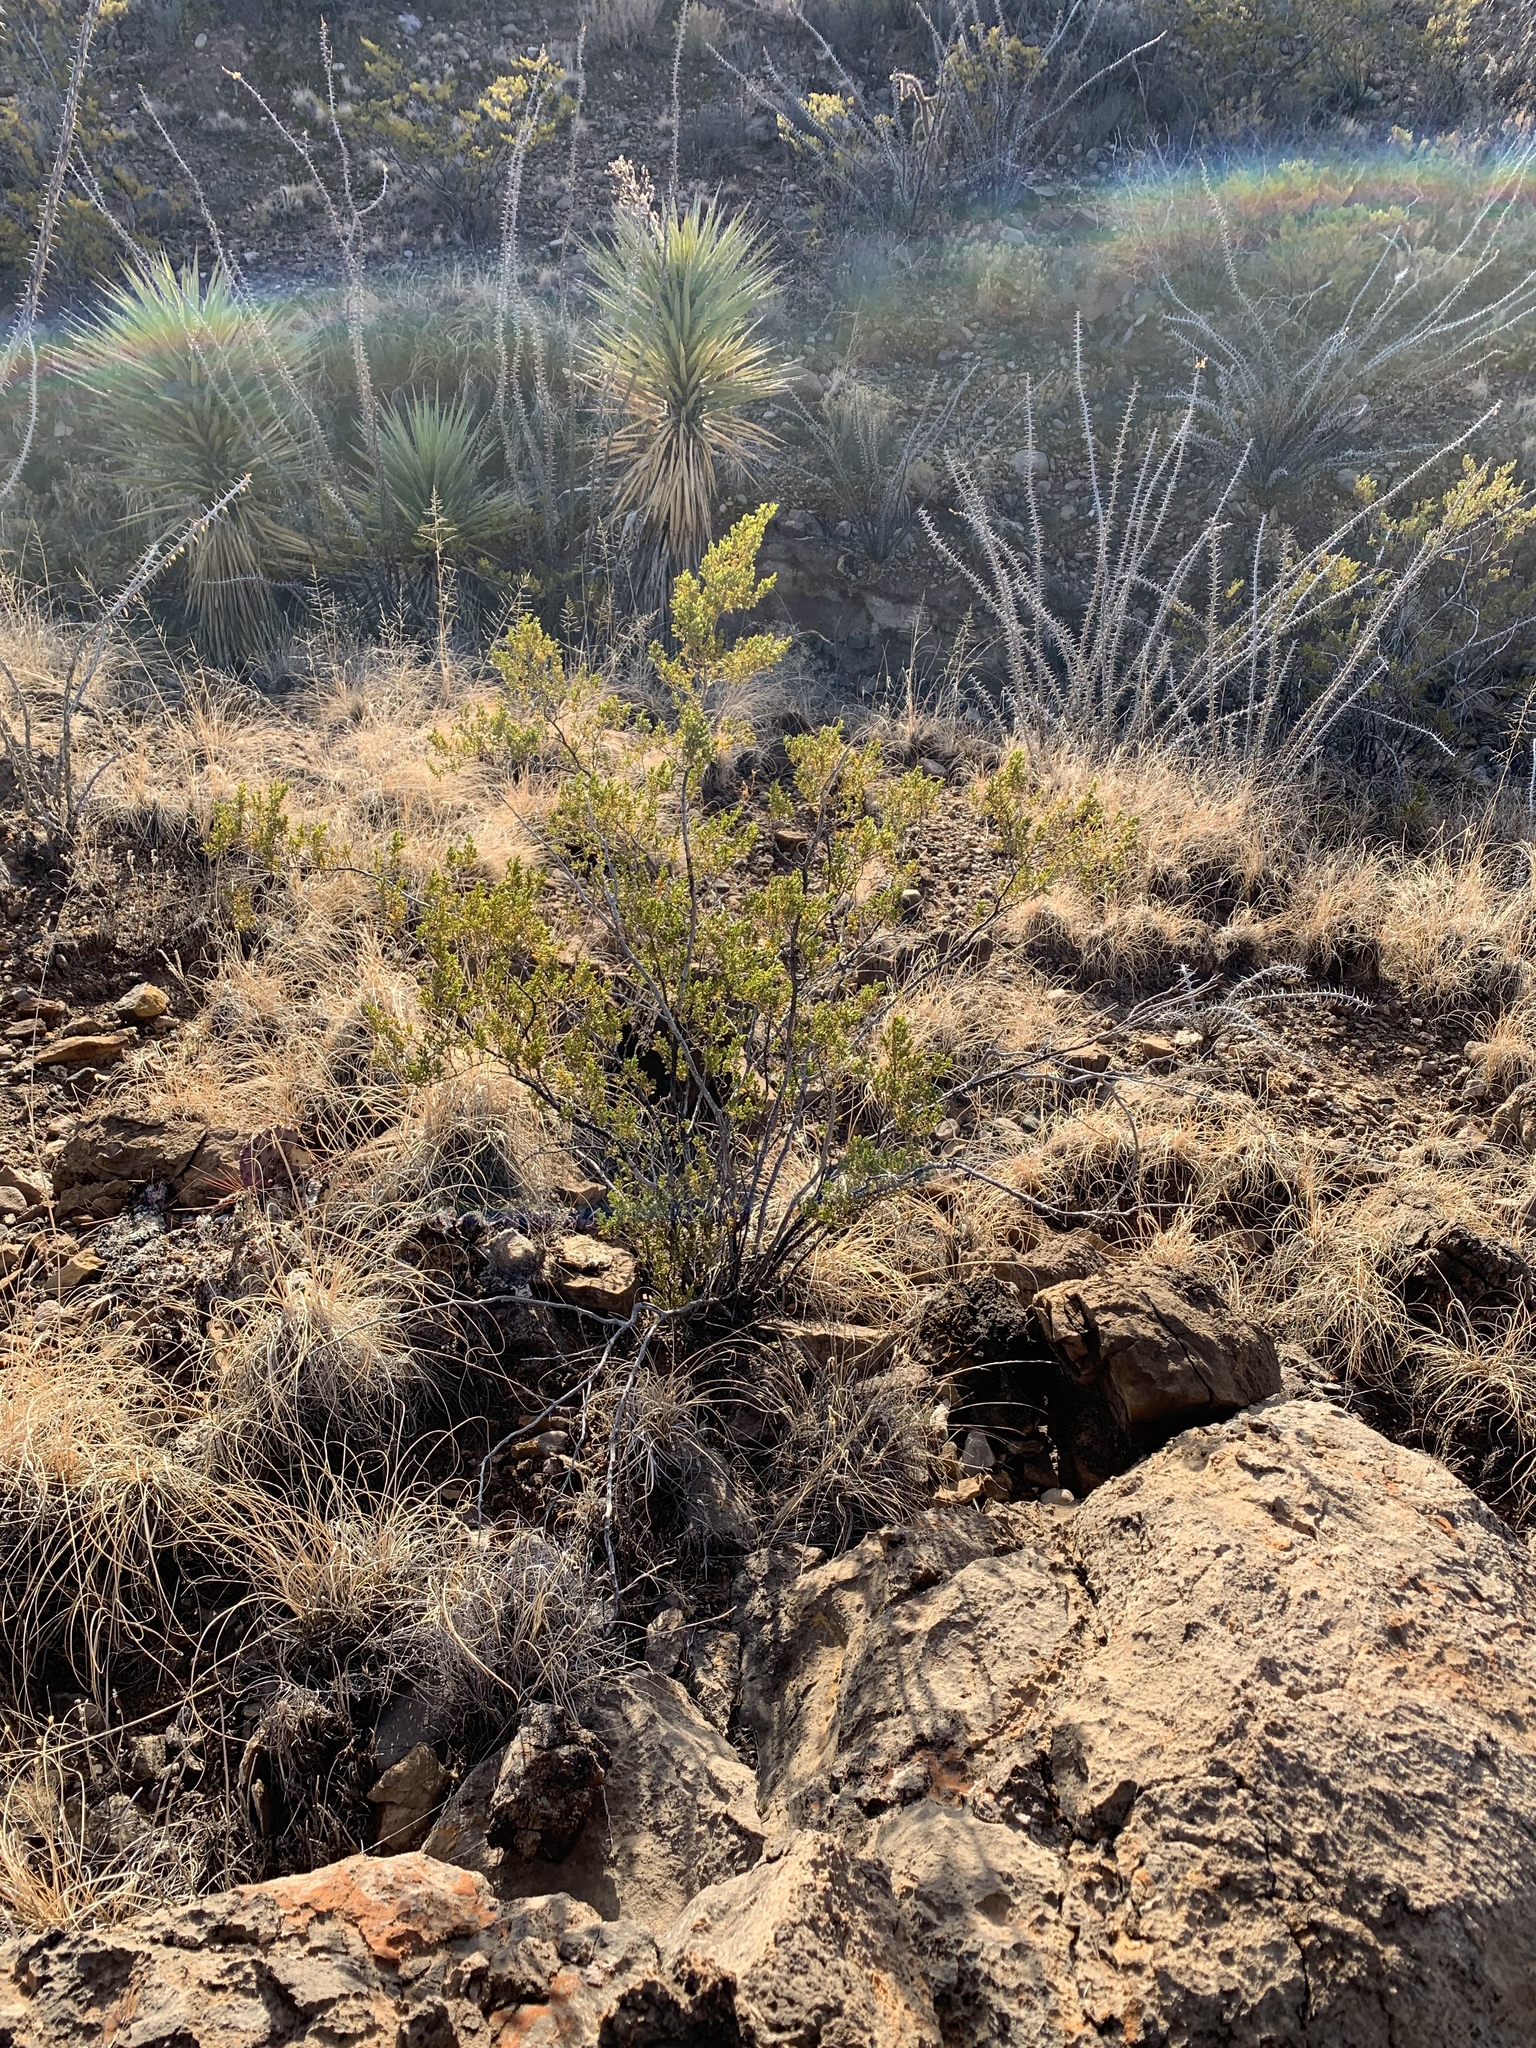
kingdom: Plantae
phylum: Tracheophyta
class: Magnoliopsida
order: Zygophyllales
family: Zygophyllaceae
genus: Larrea
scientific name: Larrea tridentata
